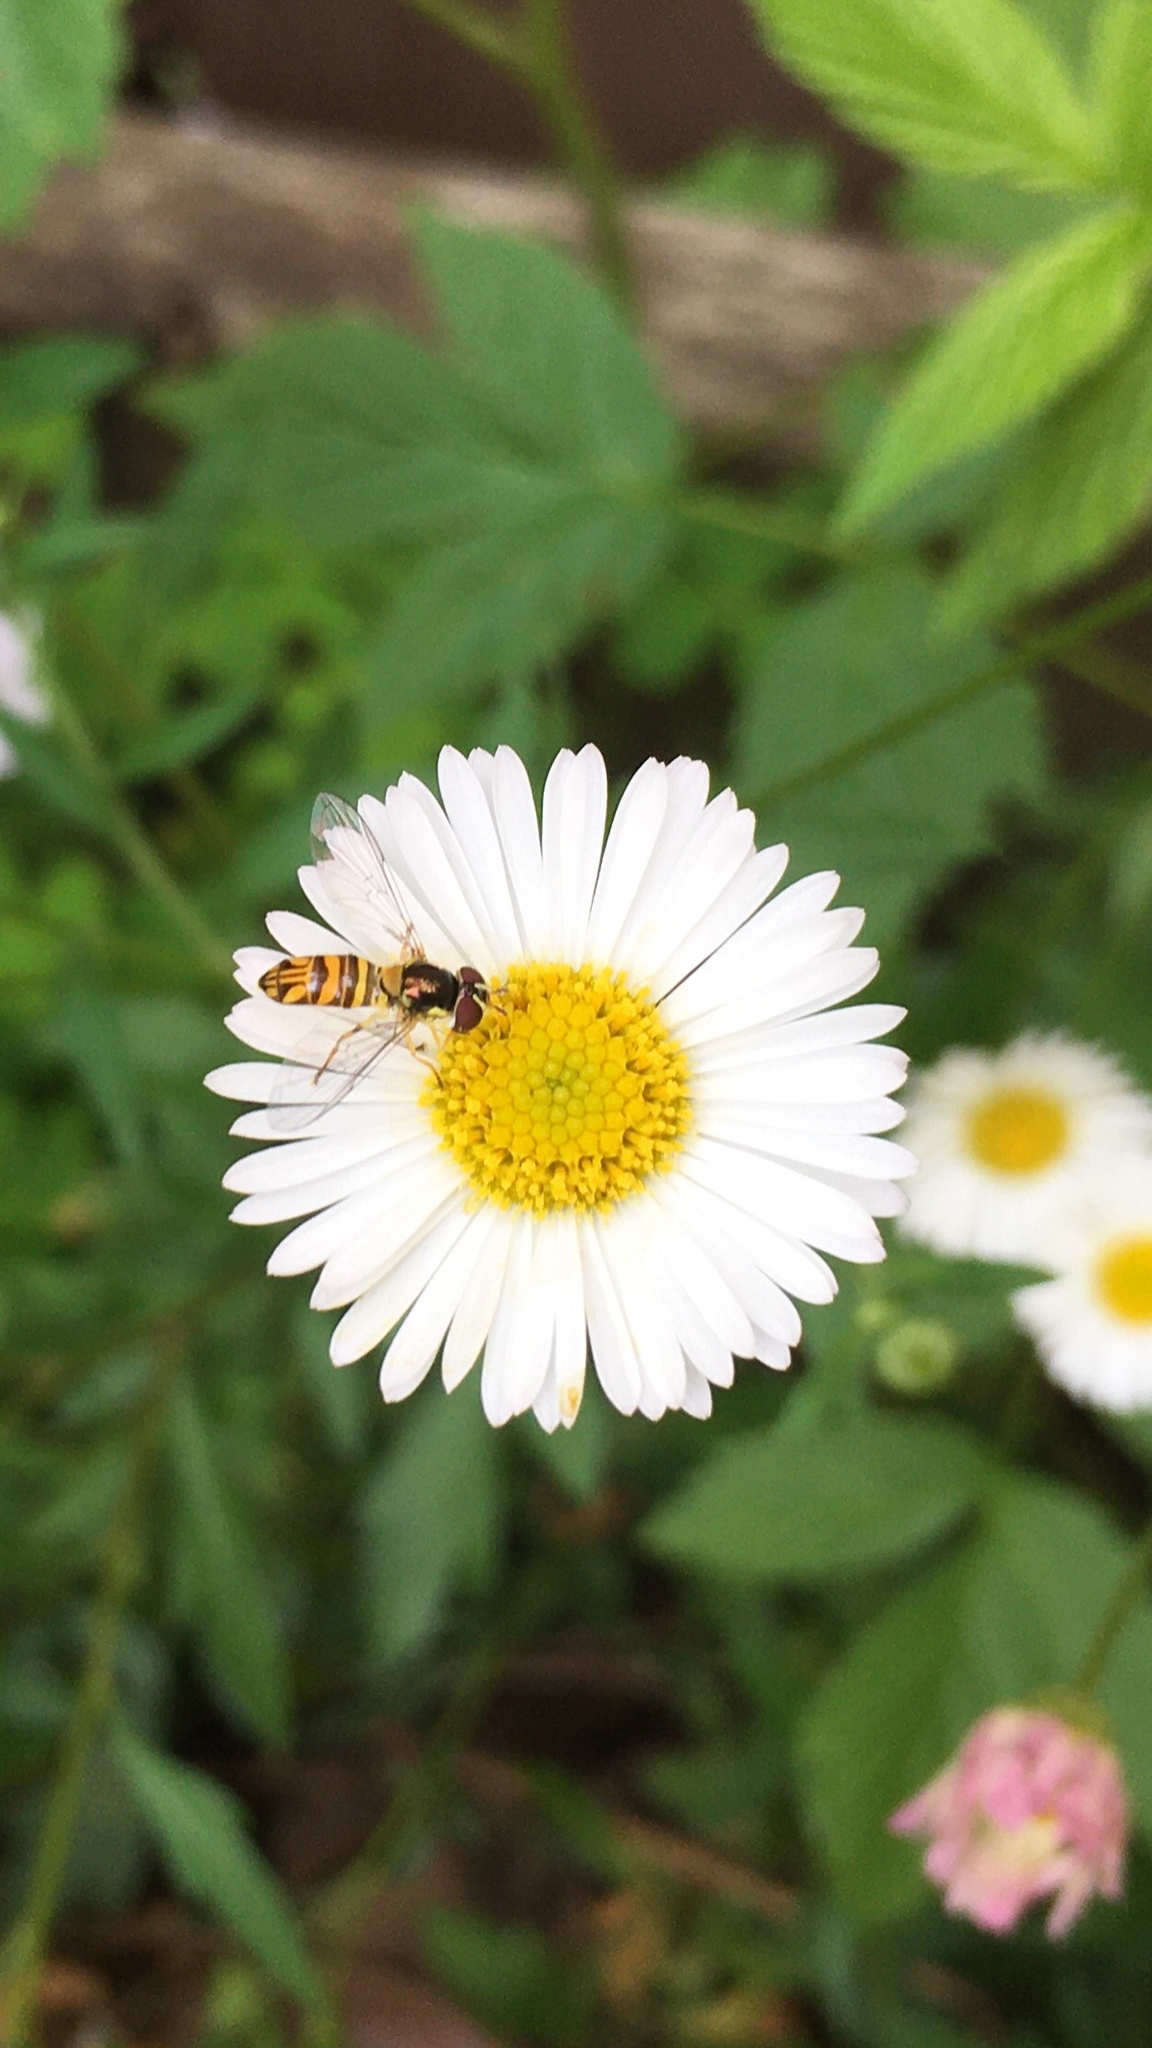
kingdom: Animalia
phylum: Arthropoda
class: Insecta
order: Diptera
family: Syrphidae
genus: Allograpta
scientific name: Allograpta obliqua
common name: Common oblique syrphid
